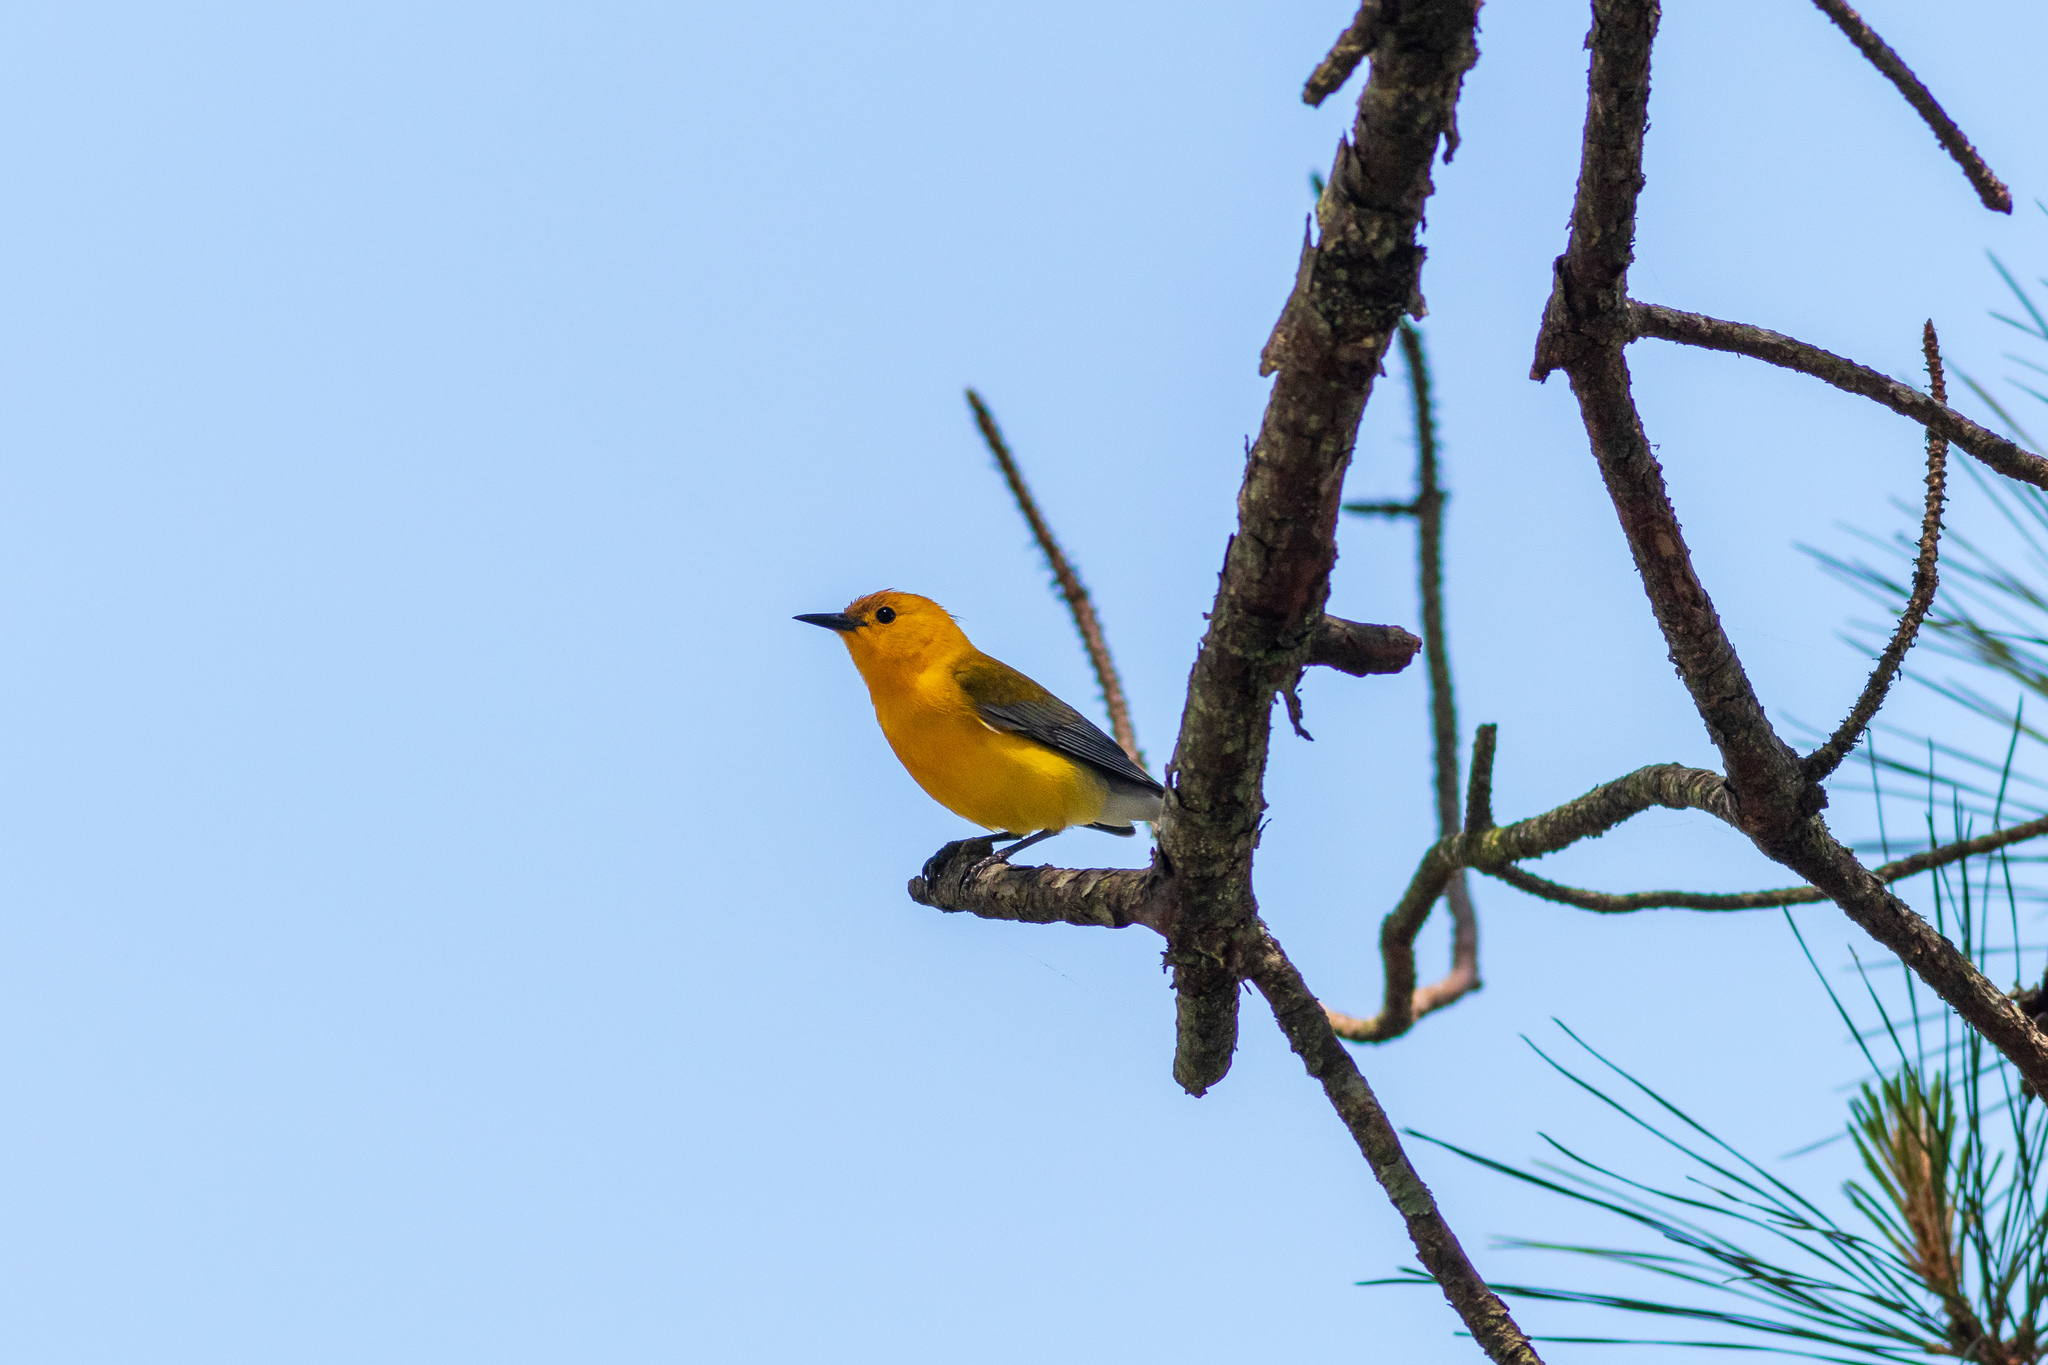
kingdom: Animalia
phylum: Chordata
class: Aves
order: Passeriformes
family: Parulidae
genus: Protonotaria
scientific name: Protonotaria citrea
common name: Prothonotary warbler
